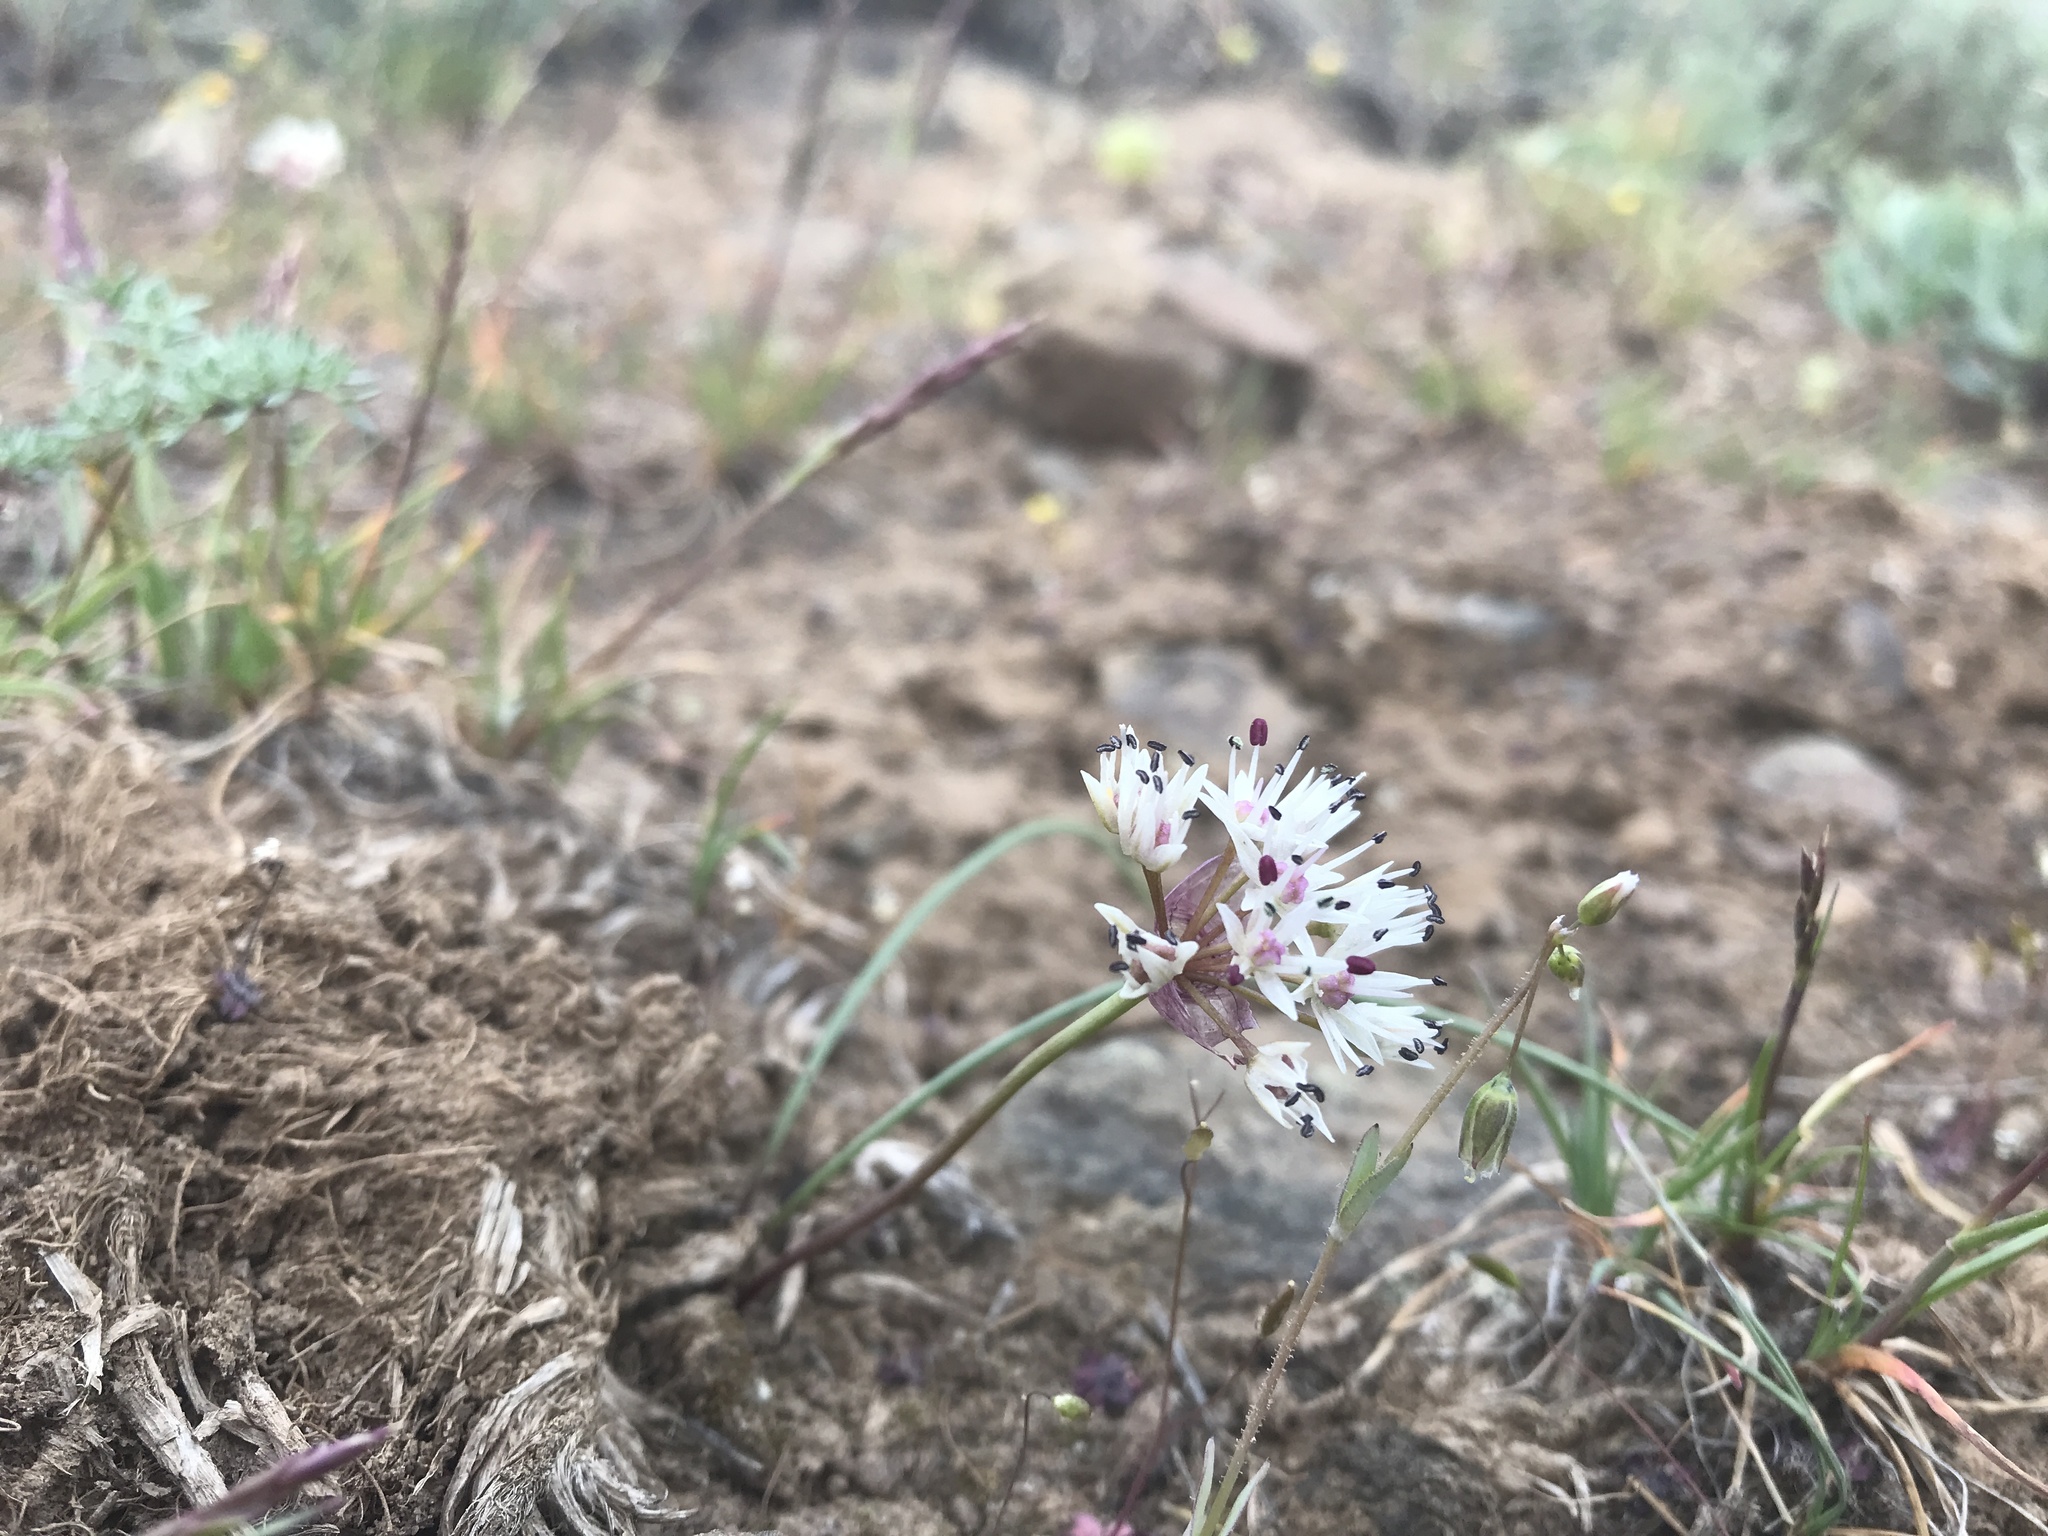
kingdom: Plantae
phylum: Tracheophyta
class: Liliopsida
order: Asparagales
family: Amaryllidaceae
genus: Allium
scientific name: Allium macrum
